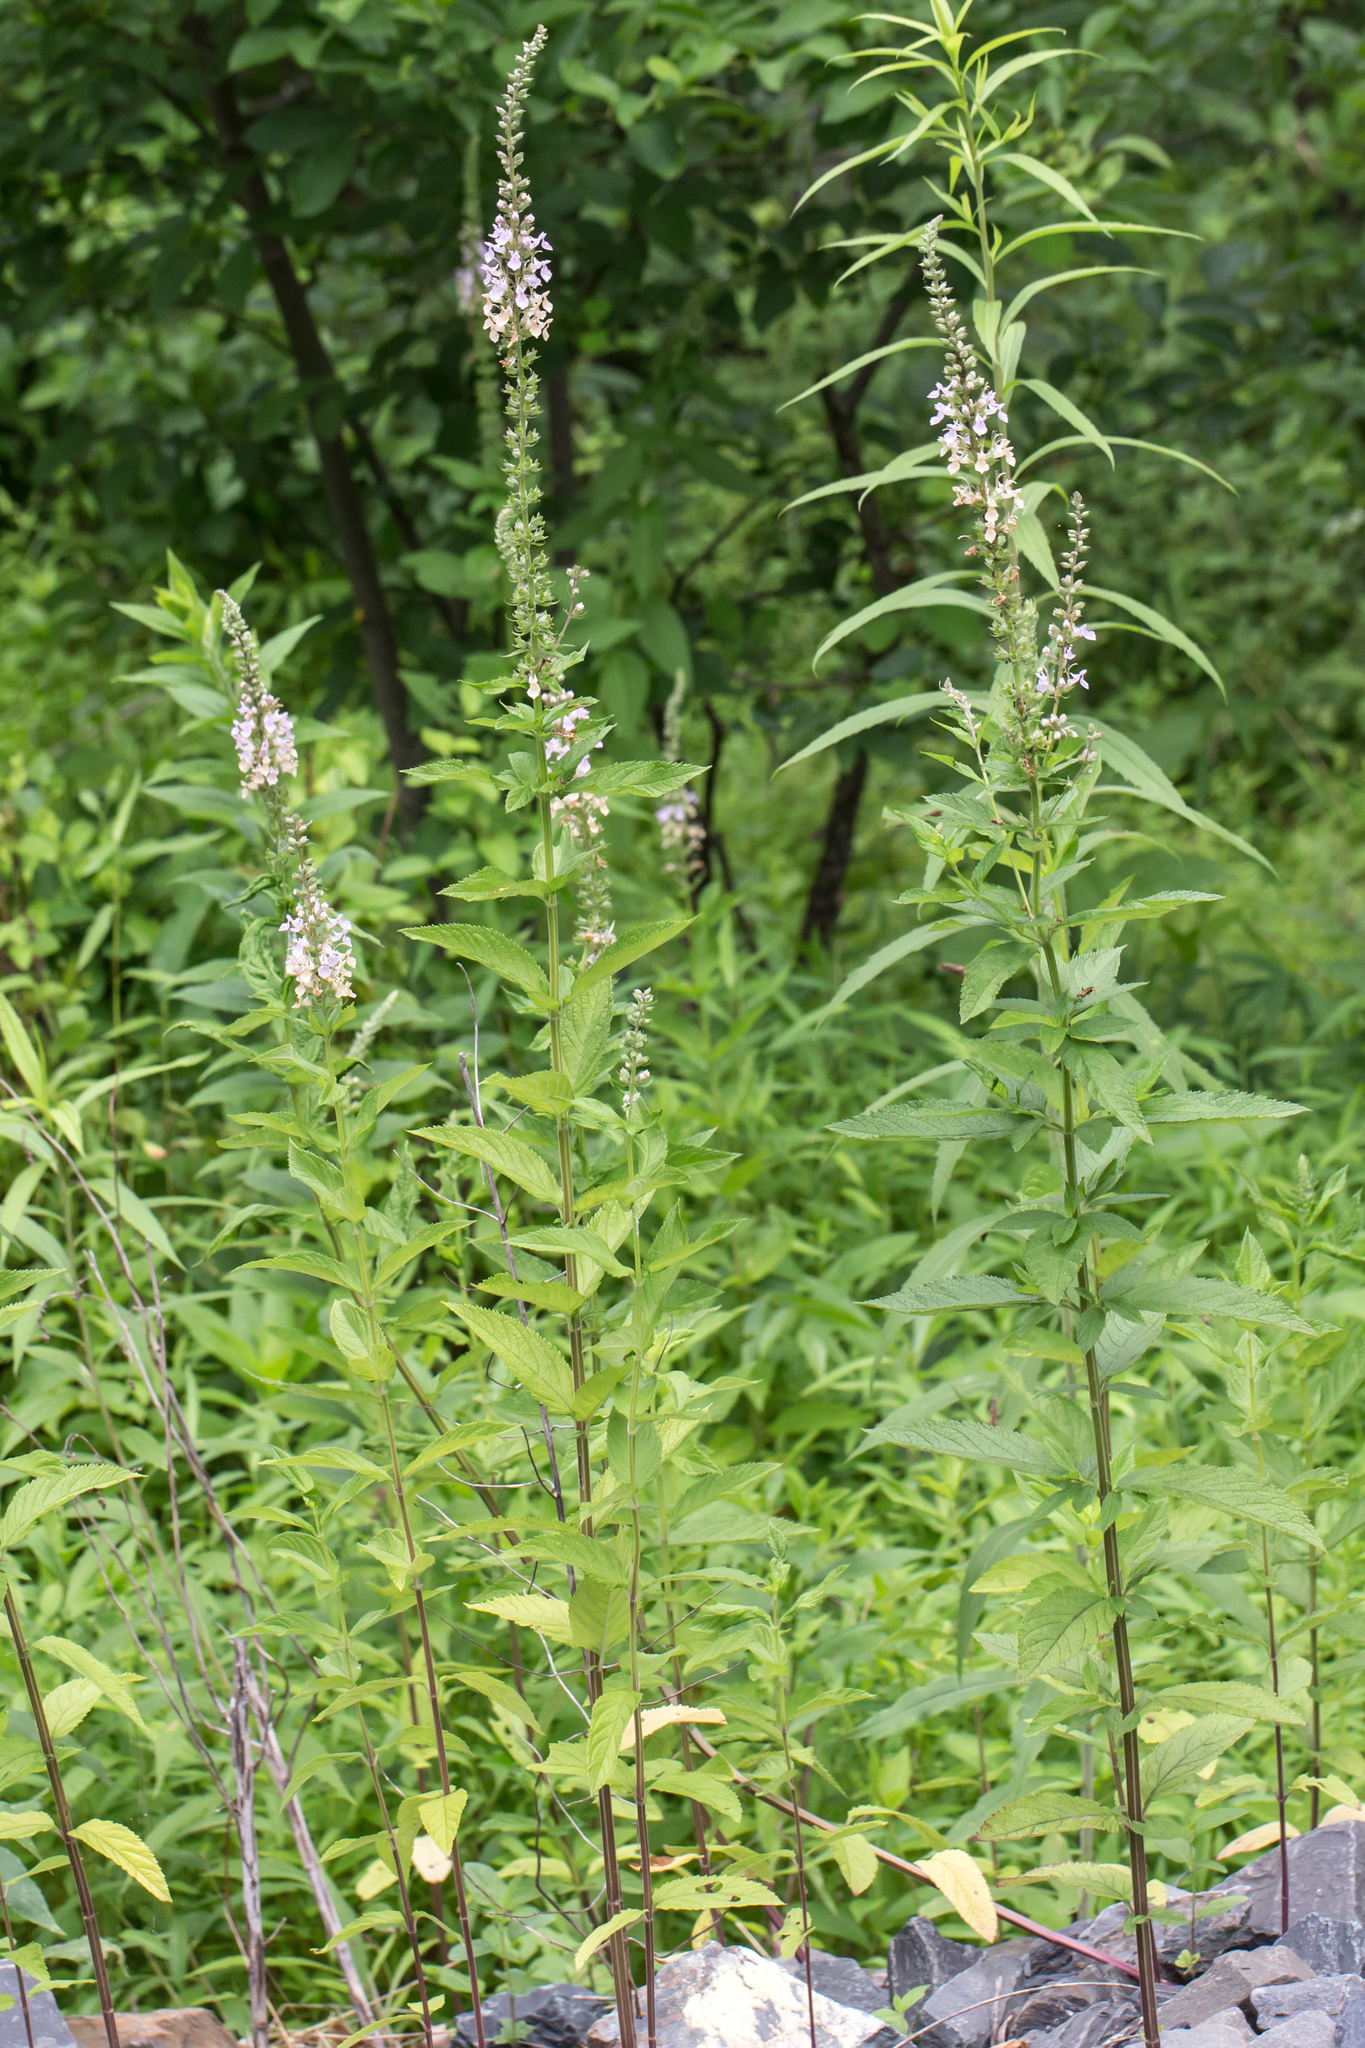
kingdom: Plantae
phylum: Tracheophyta
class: Magnoliopsida
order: Lamiales
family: Lamiaceae
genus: Teucrium
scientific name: Teucrium canadense
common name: American germander
